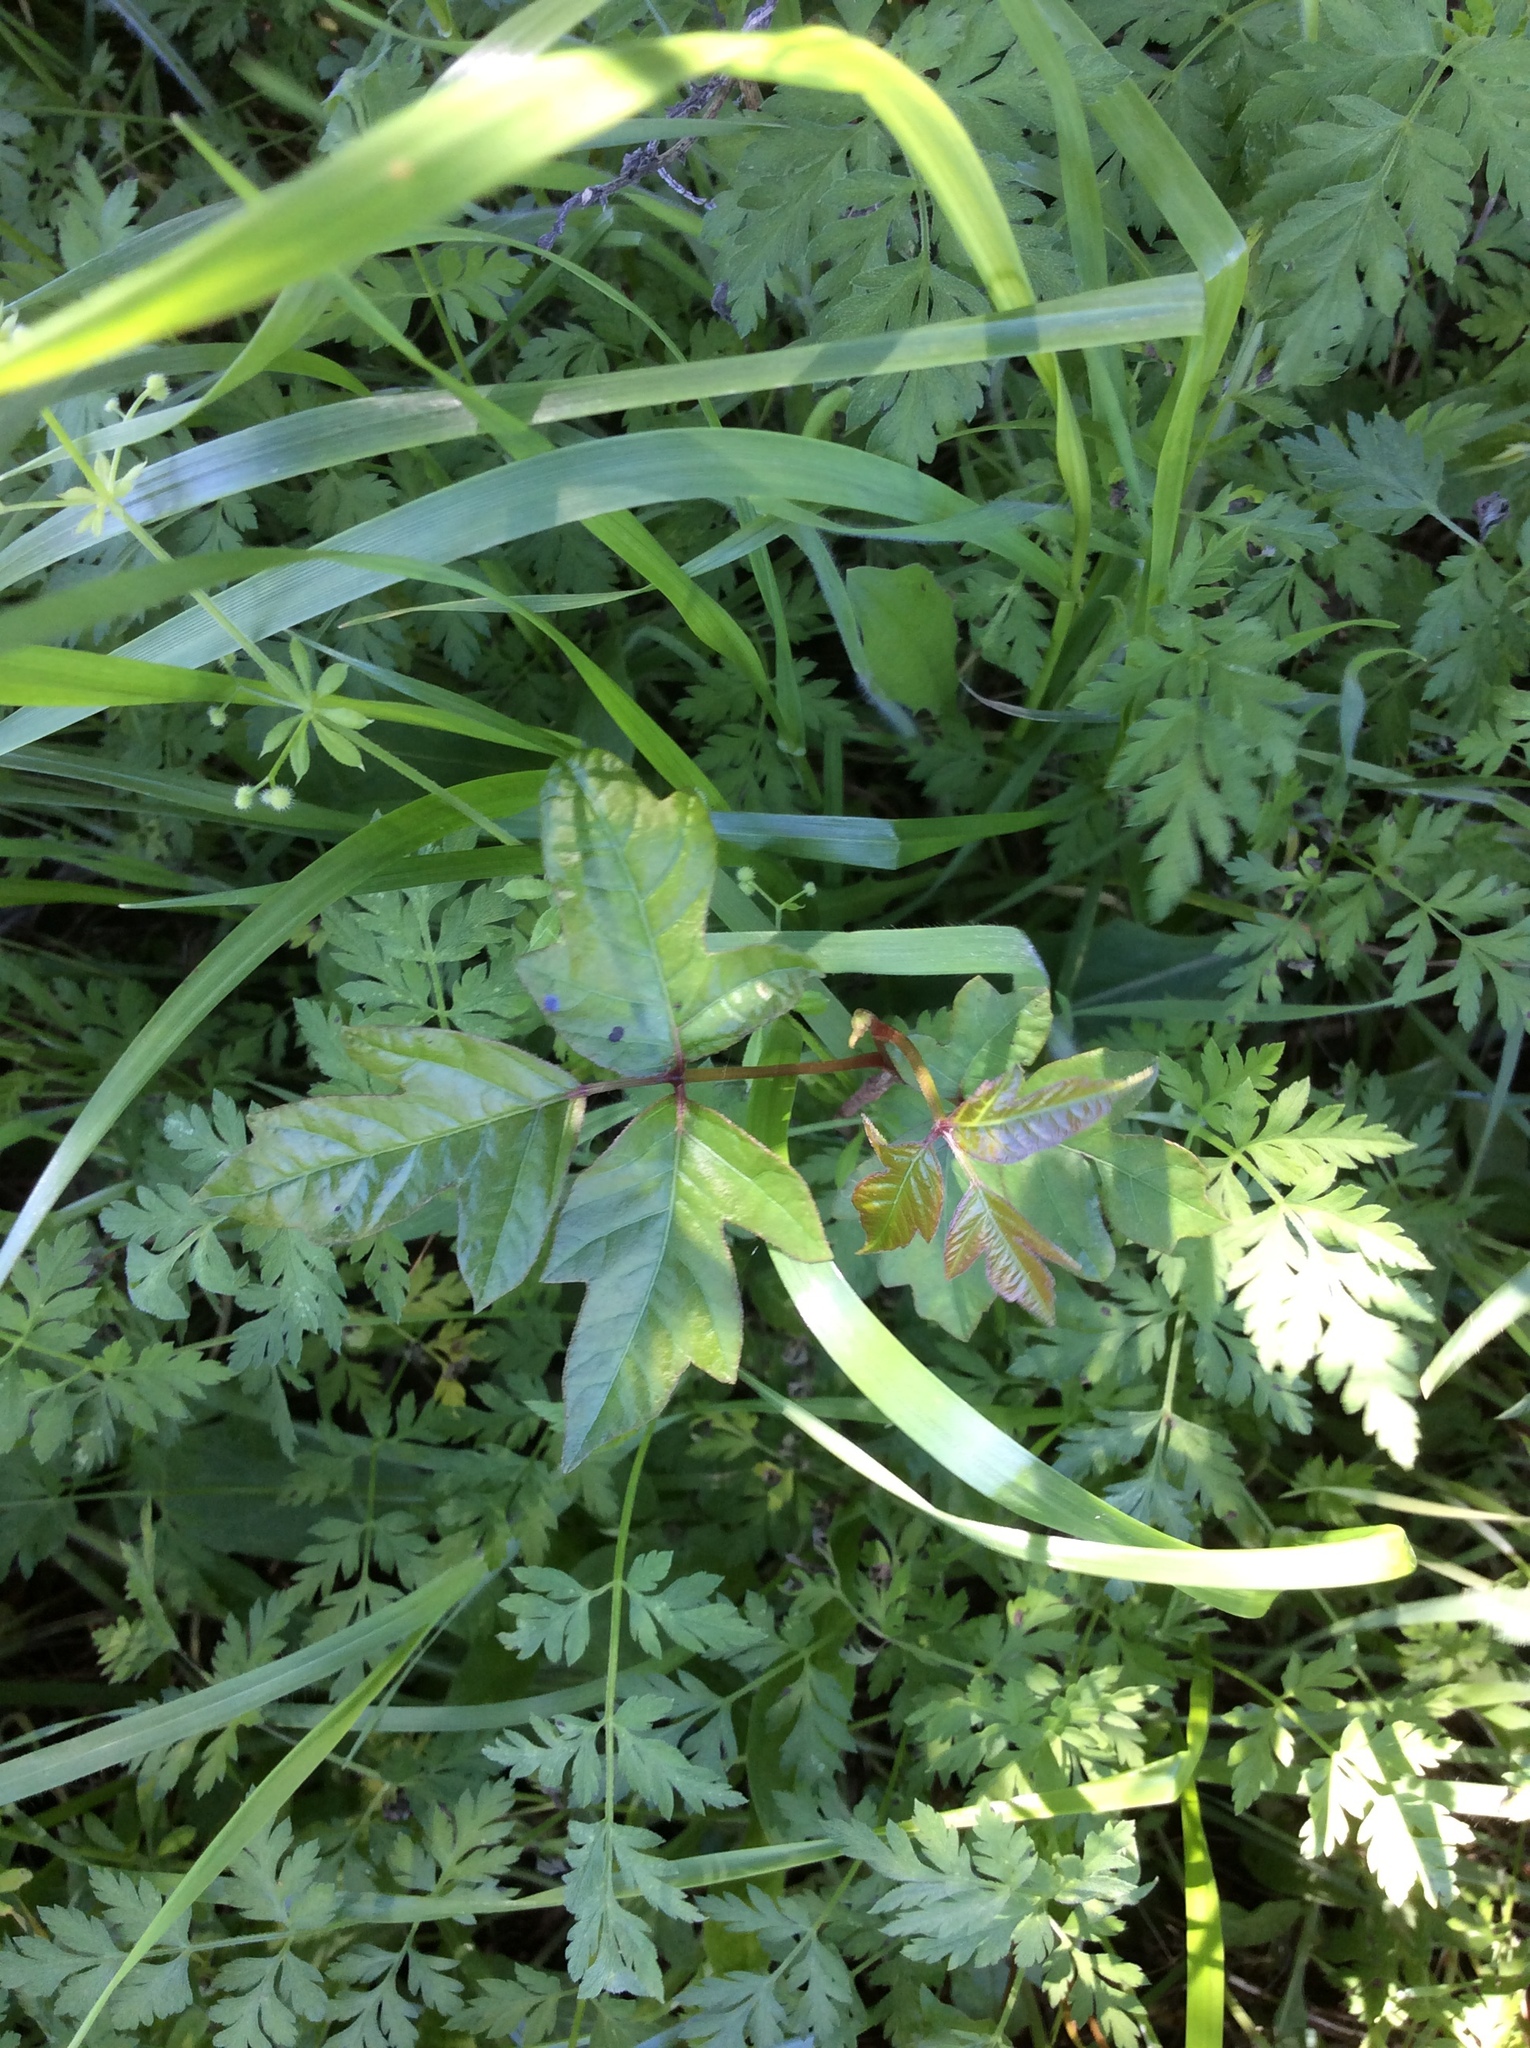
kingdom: Plantae
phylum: Tracheophyta
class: Magnoliopsida
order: Sapindales
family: Anacardiaceae
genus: Toxicodendron
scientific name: Toxicodendron radicans
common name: Poison ivy
